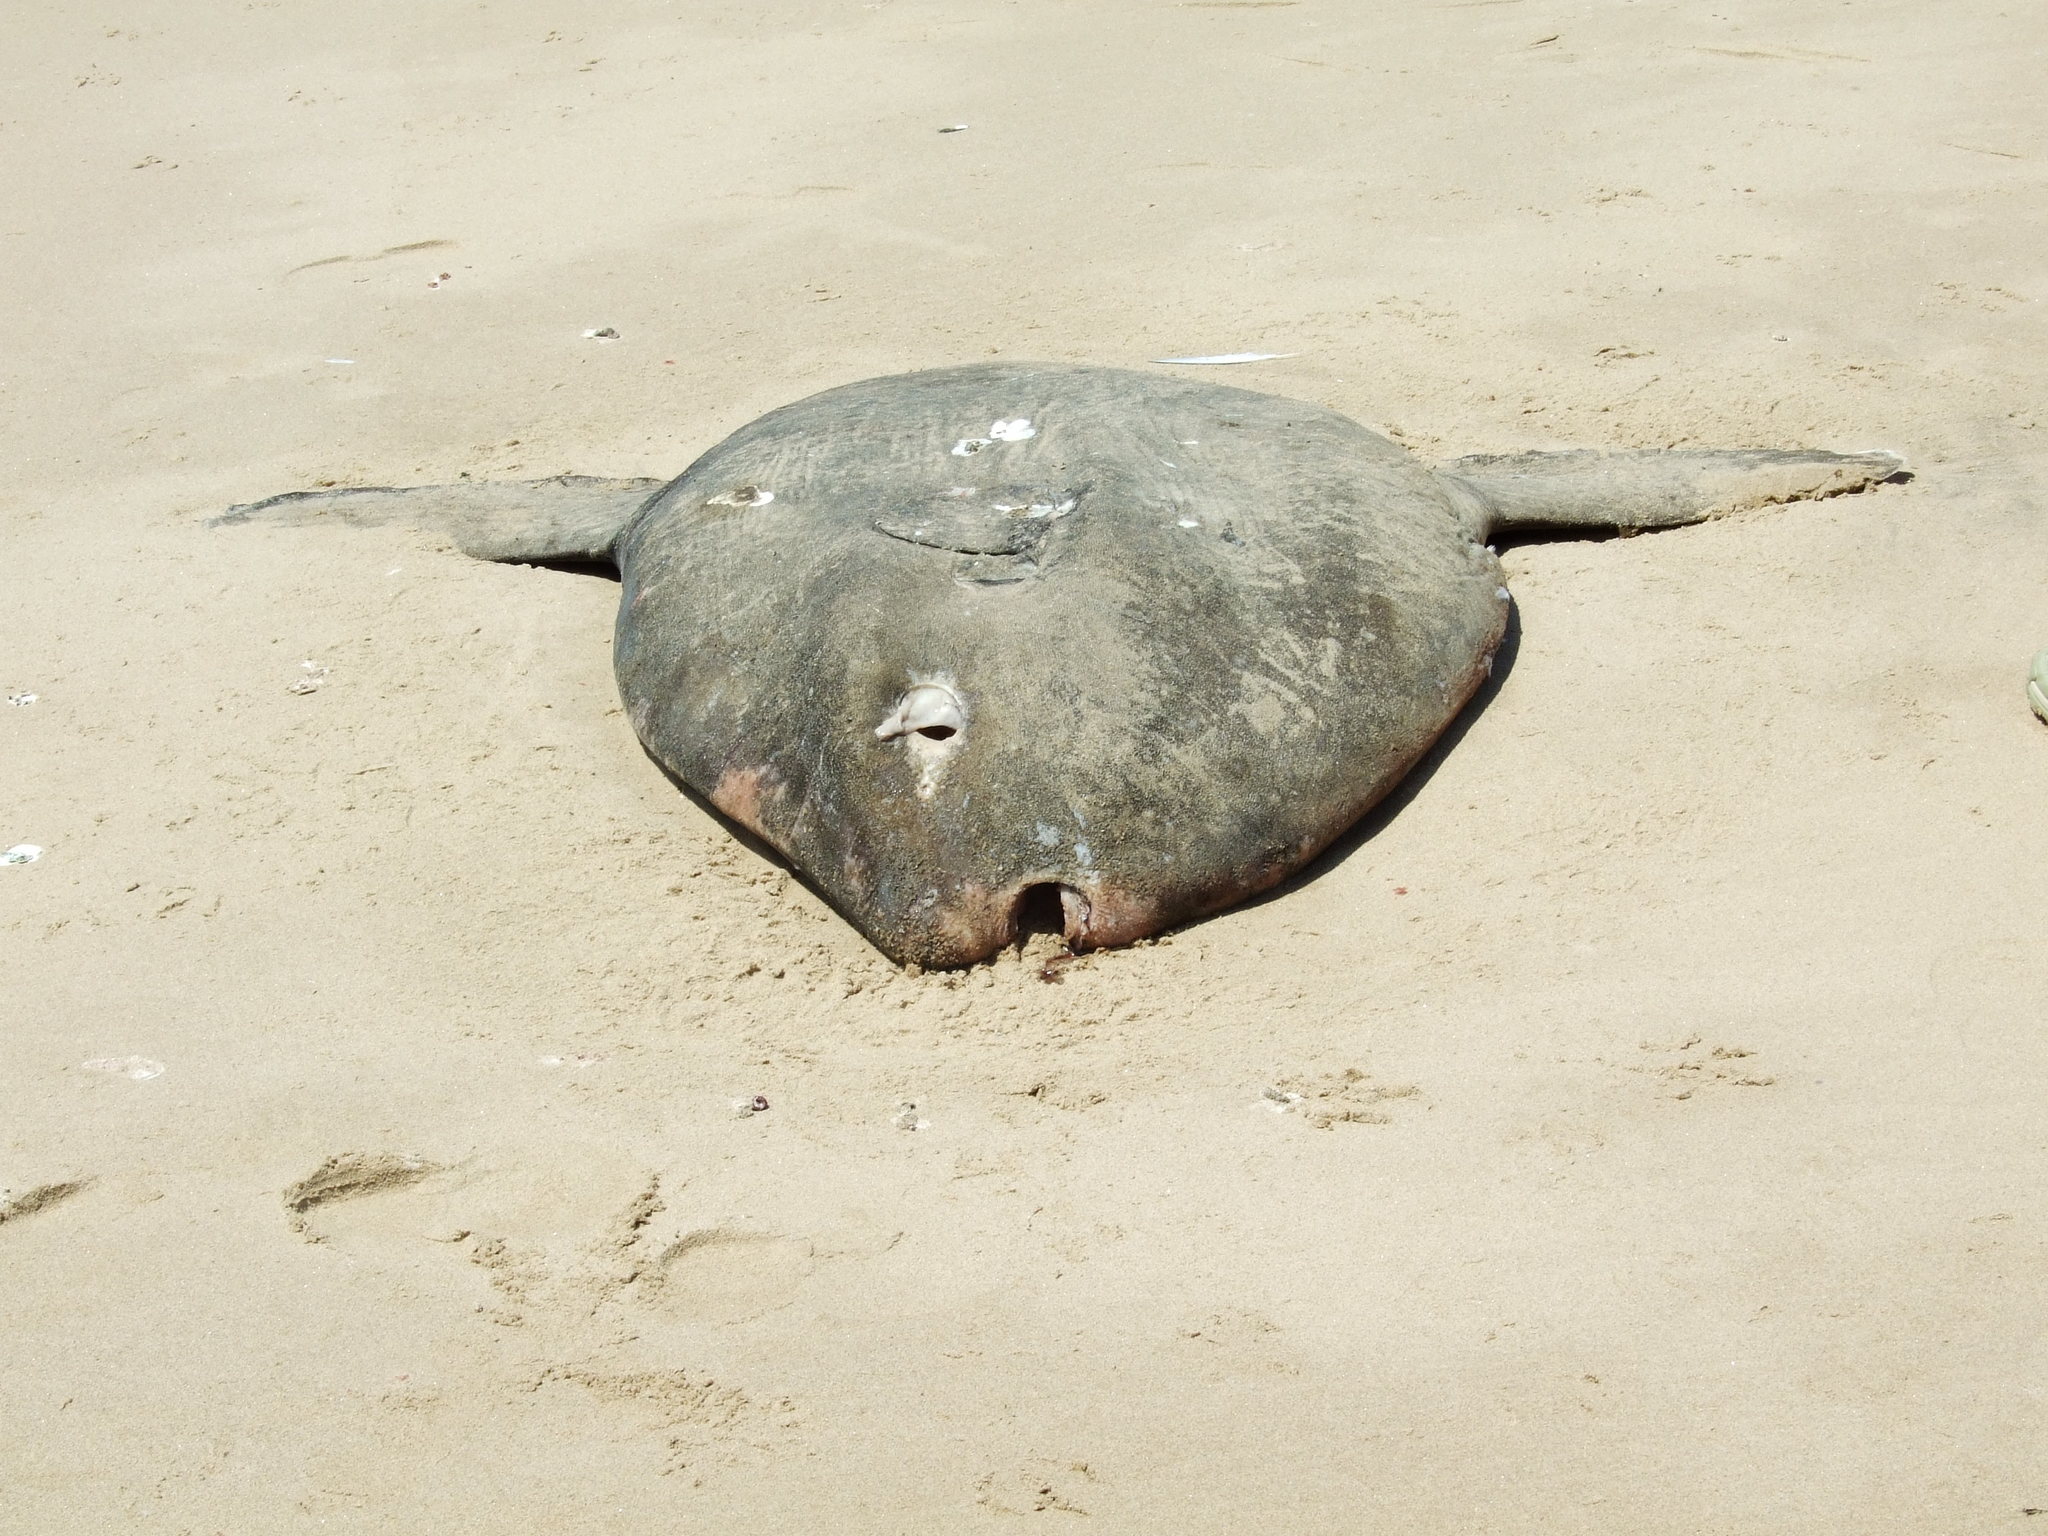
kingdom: Animalia
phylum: Chordata
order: Tetraodontiformes
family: Molidae
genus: Mola
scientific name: Mola mola
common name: Ocean sunfish
